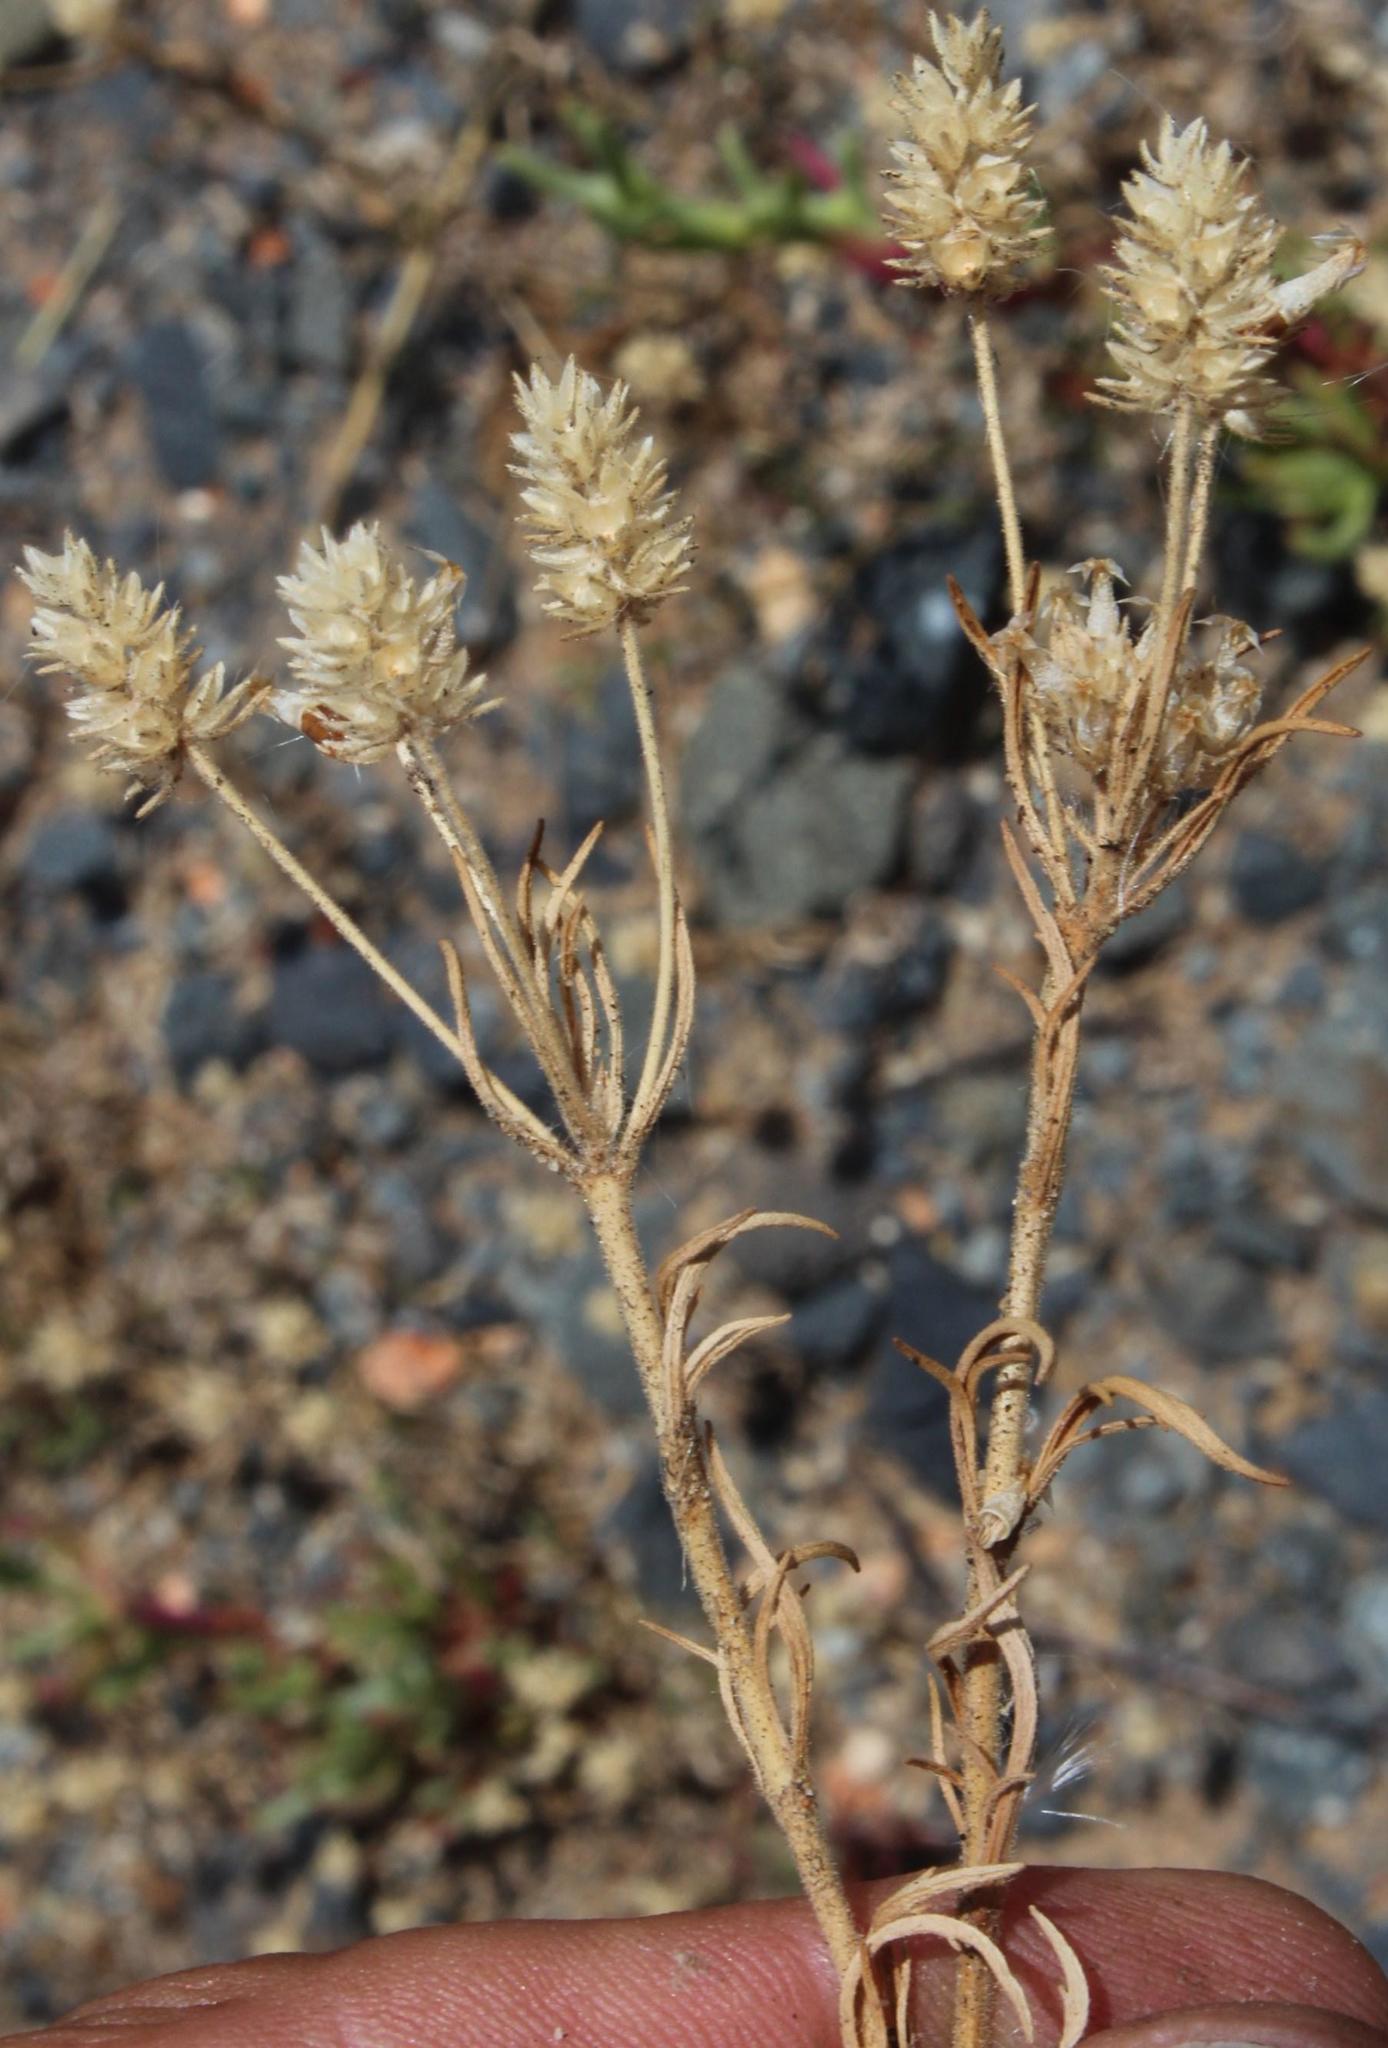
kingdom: Plantae
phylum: Tracheophyta
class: Magnoliopsida
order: Lamiales
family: Plantaginaceae
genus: Plantago
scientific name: Plantago afra
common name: Glandular plantain
